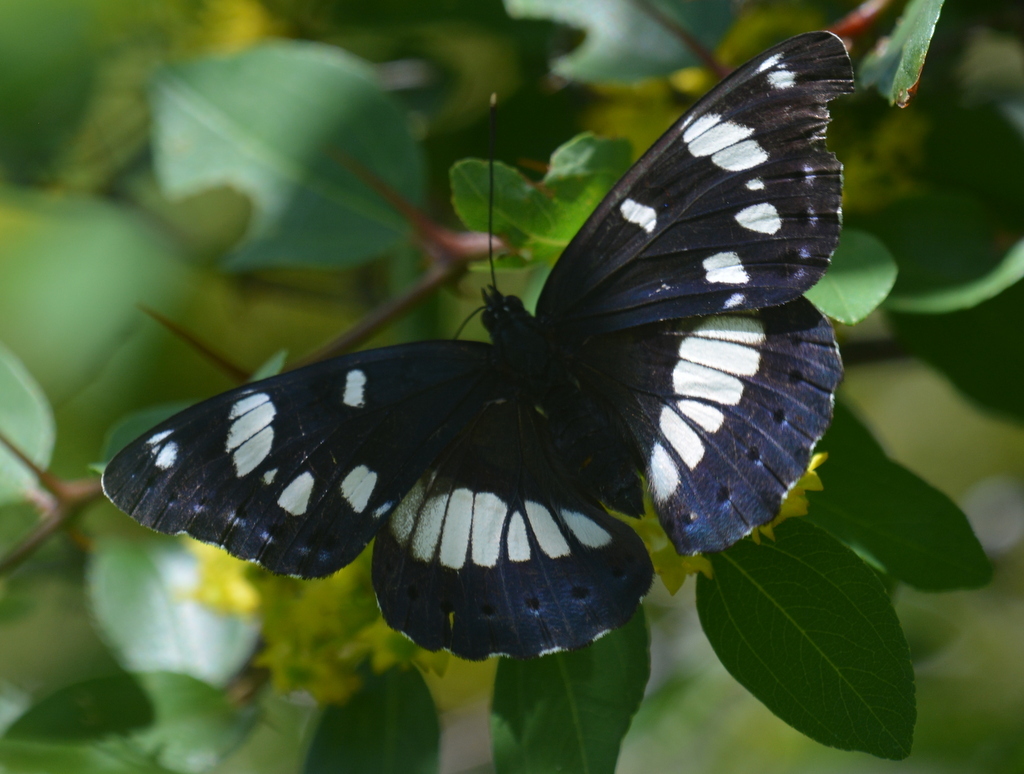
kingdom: Animalia
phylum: Arthropoda
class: Insecta
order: Lepidoptera
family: Nymphalidae
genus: Limenitis
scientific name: Limenitis reducta
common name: Southern white admiral
